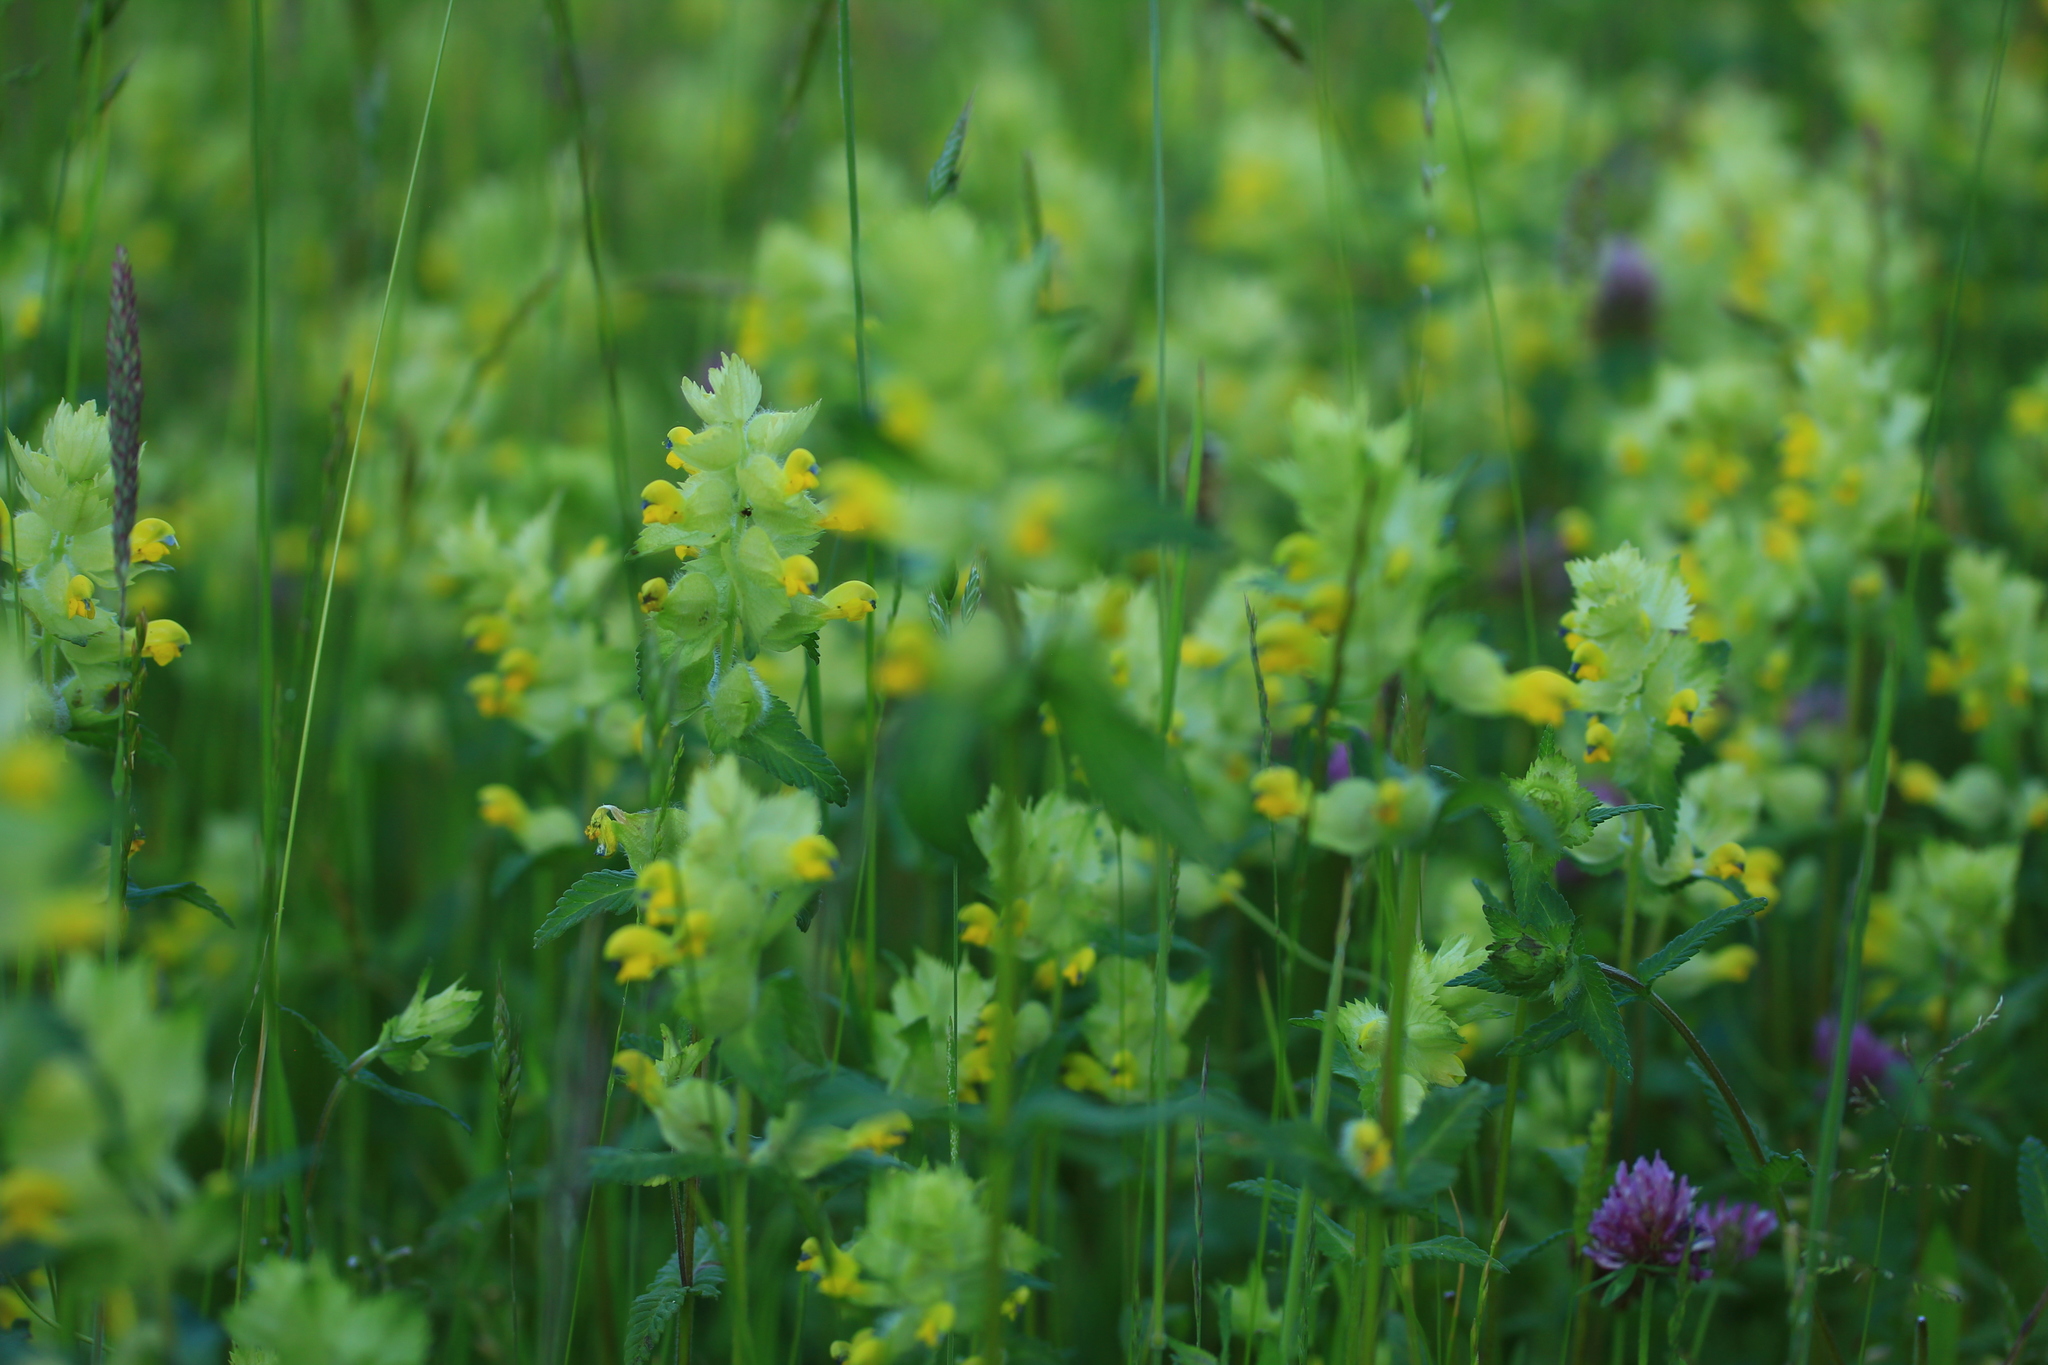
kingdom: Plantae
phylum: Tracheophyta
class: Magnoliopsida
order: Lamiales
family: Orobanchaceae
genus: Rhinanthus
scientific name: Rhinanthus alectorolophus
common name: Greater yellow-rattle
